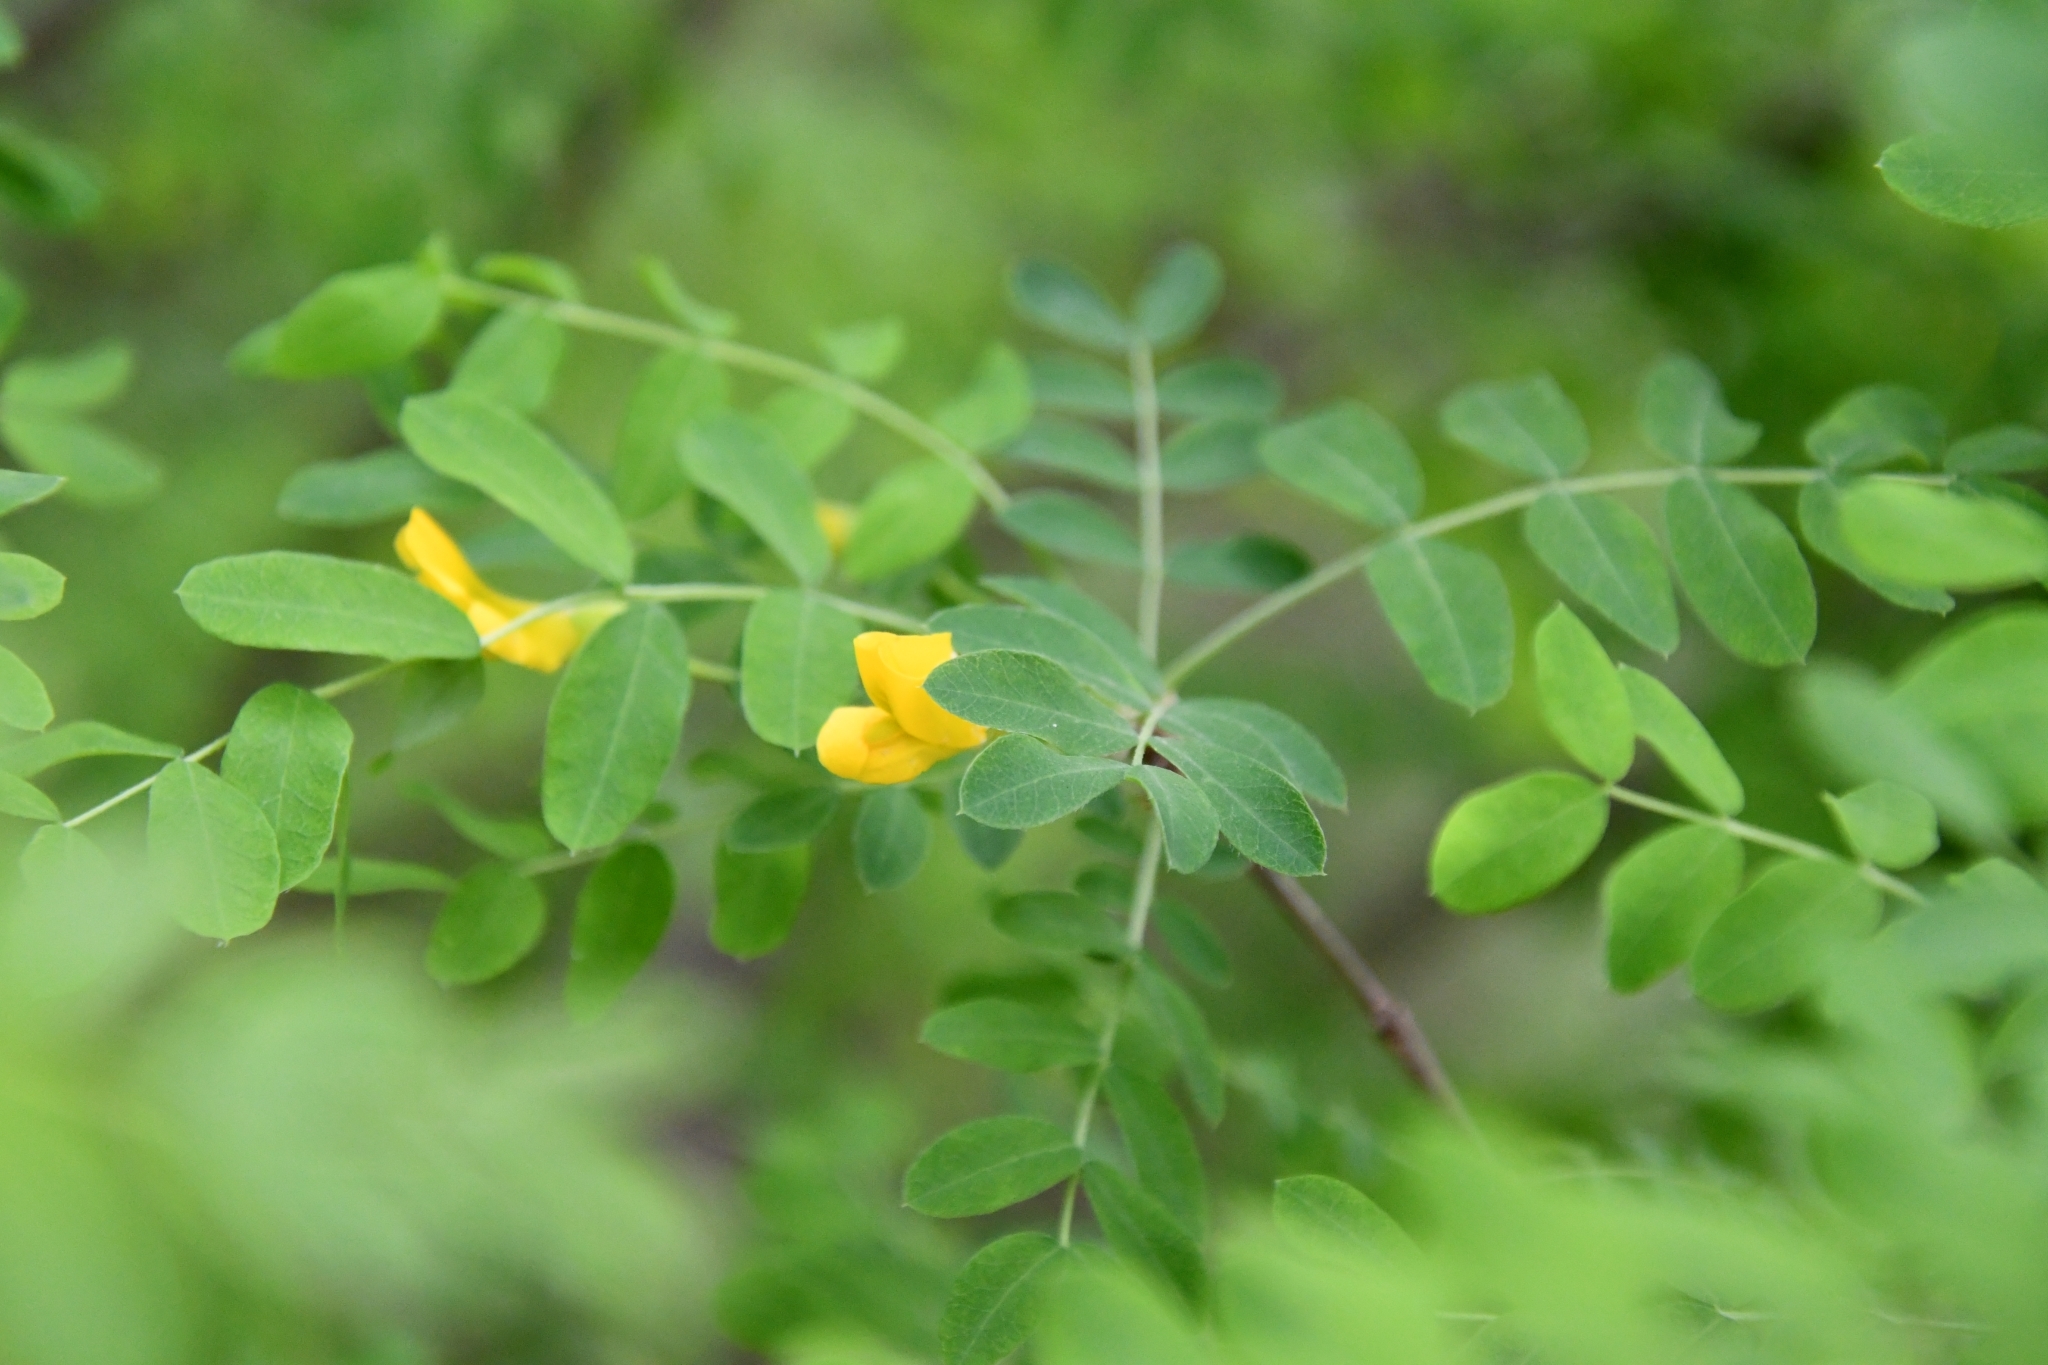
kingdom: Plantae
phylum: Tracheophyta
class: Magnoliopsida
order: Fabales
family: Fabaceae
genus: Caragana
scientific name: Caragana arborescens
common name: Siberian peashrub
